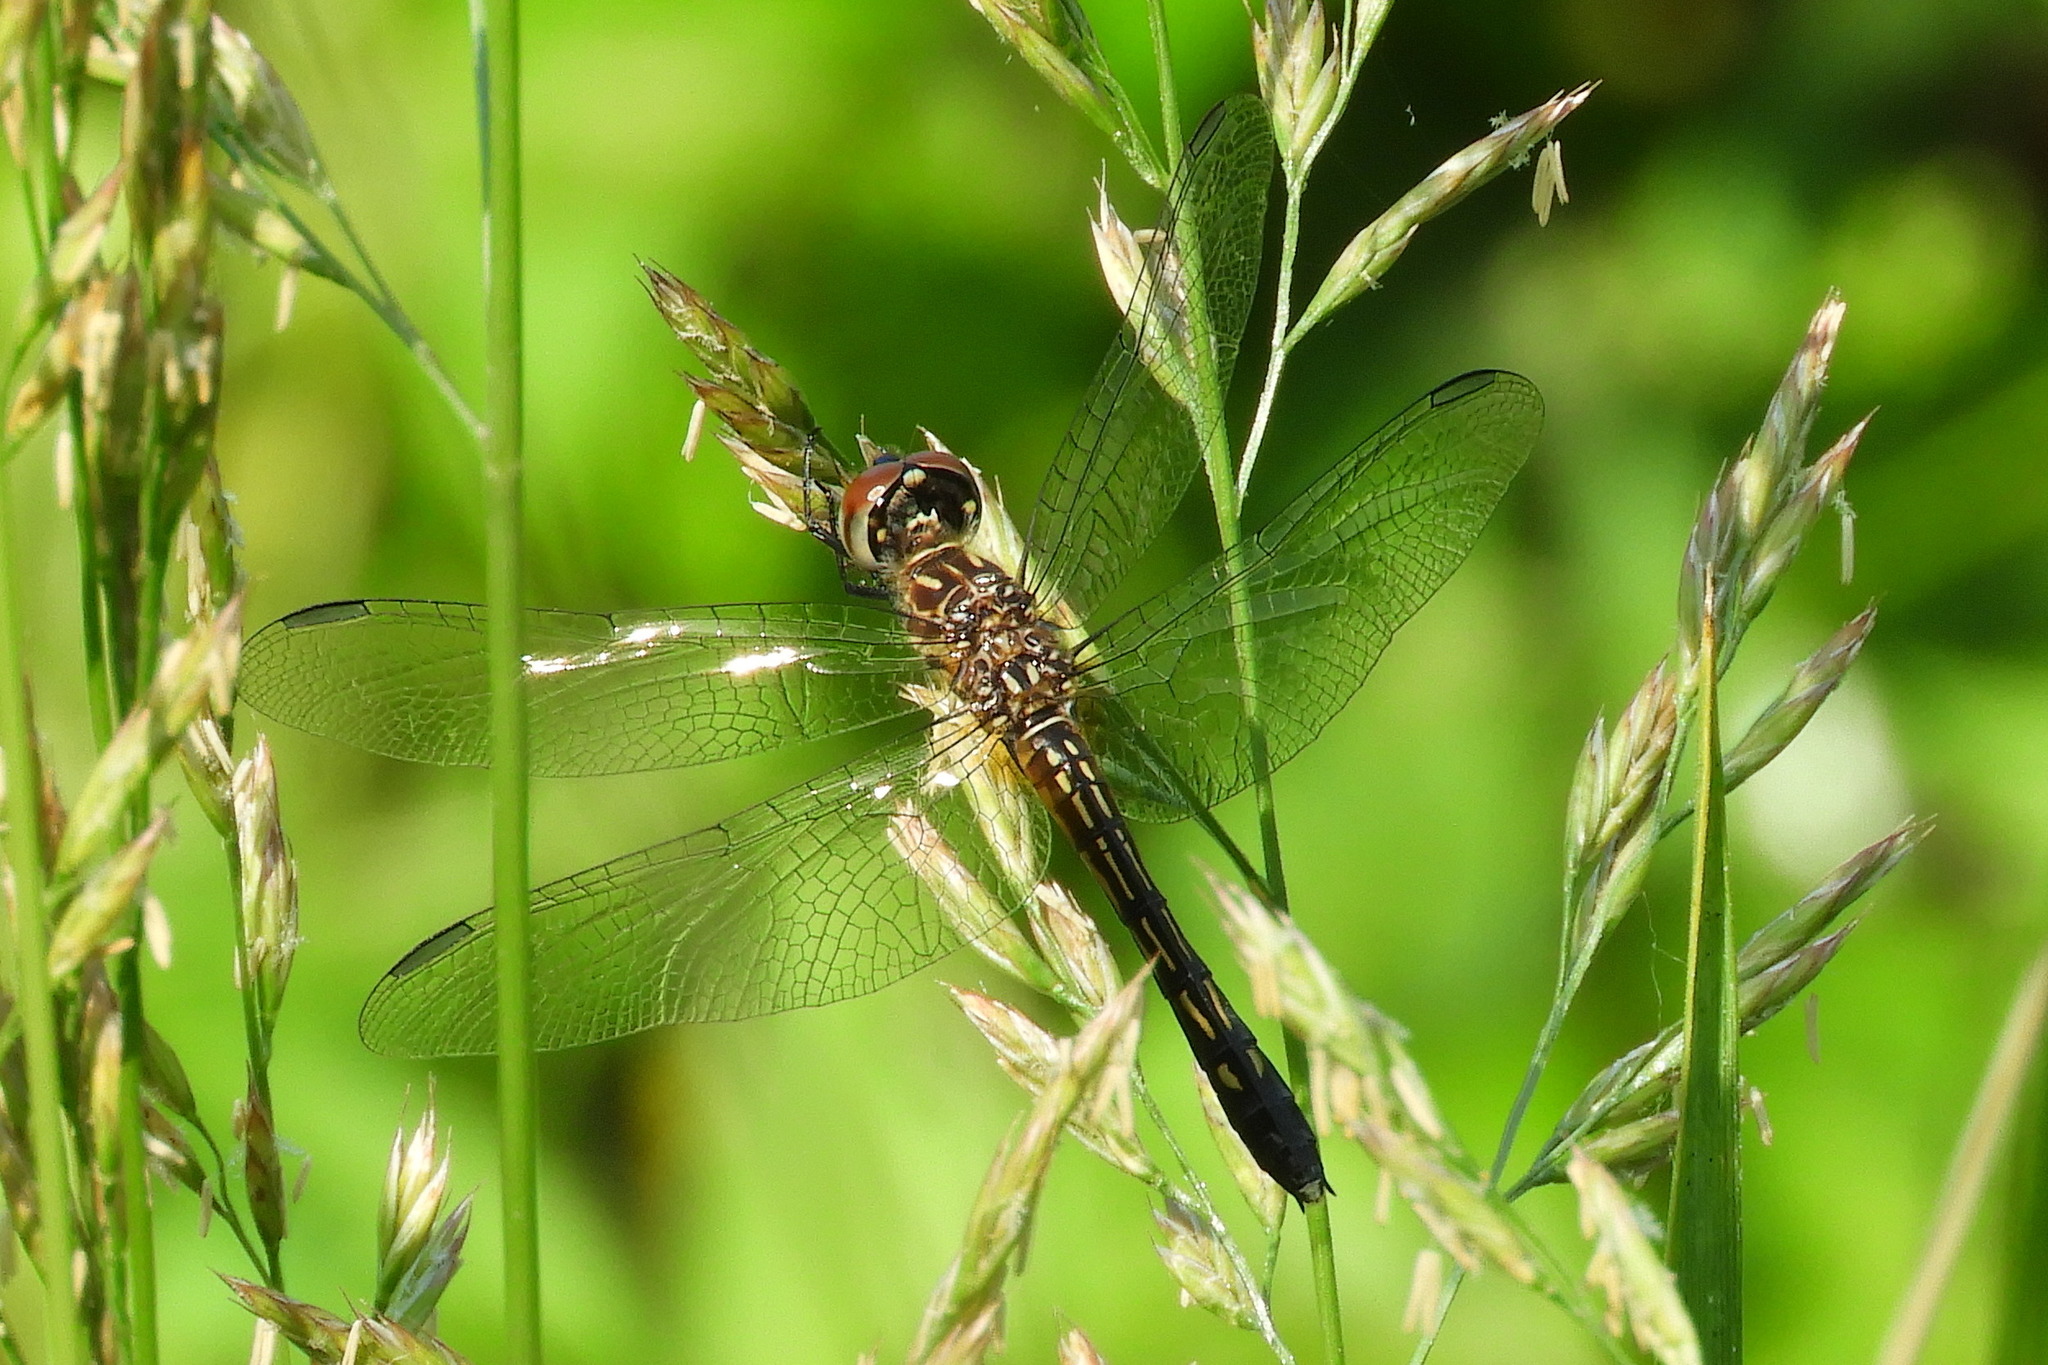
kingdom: Animalia
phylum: Arthropoda
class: Insecta
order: Odonata
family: Libellulidae
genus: Pachydiplax
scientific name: Pachydiplax longipennis
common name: Blue dasher
